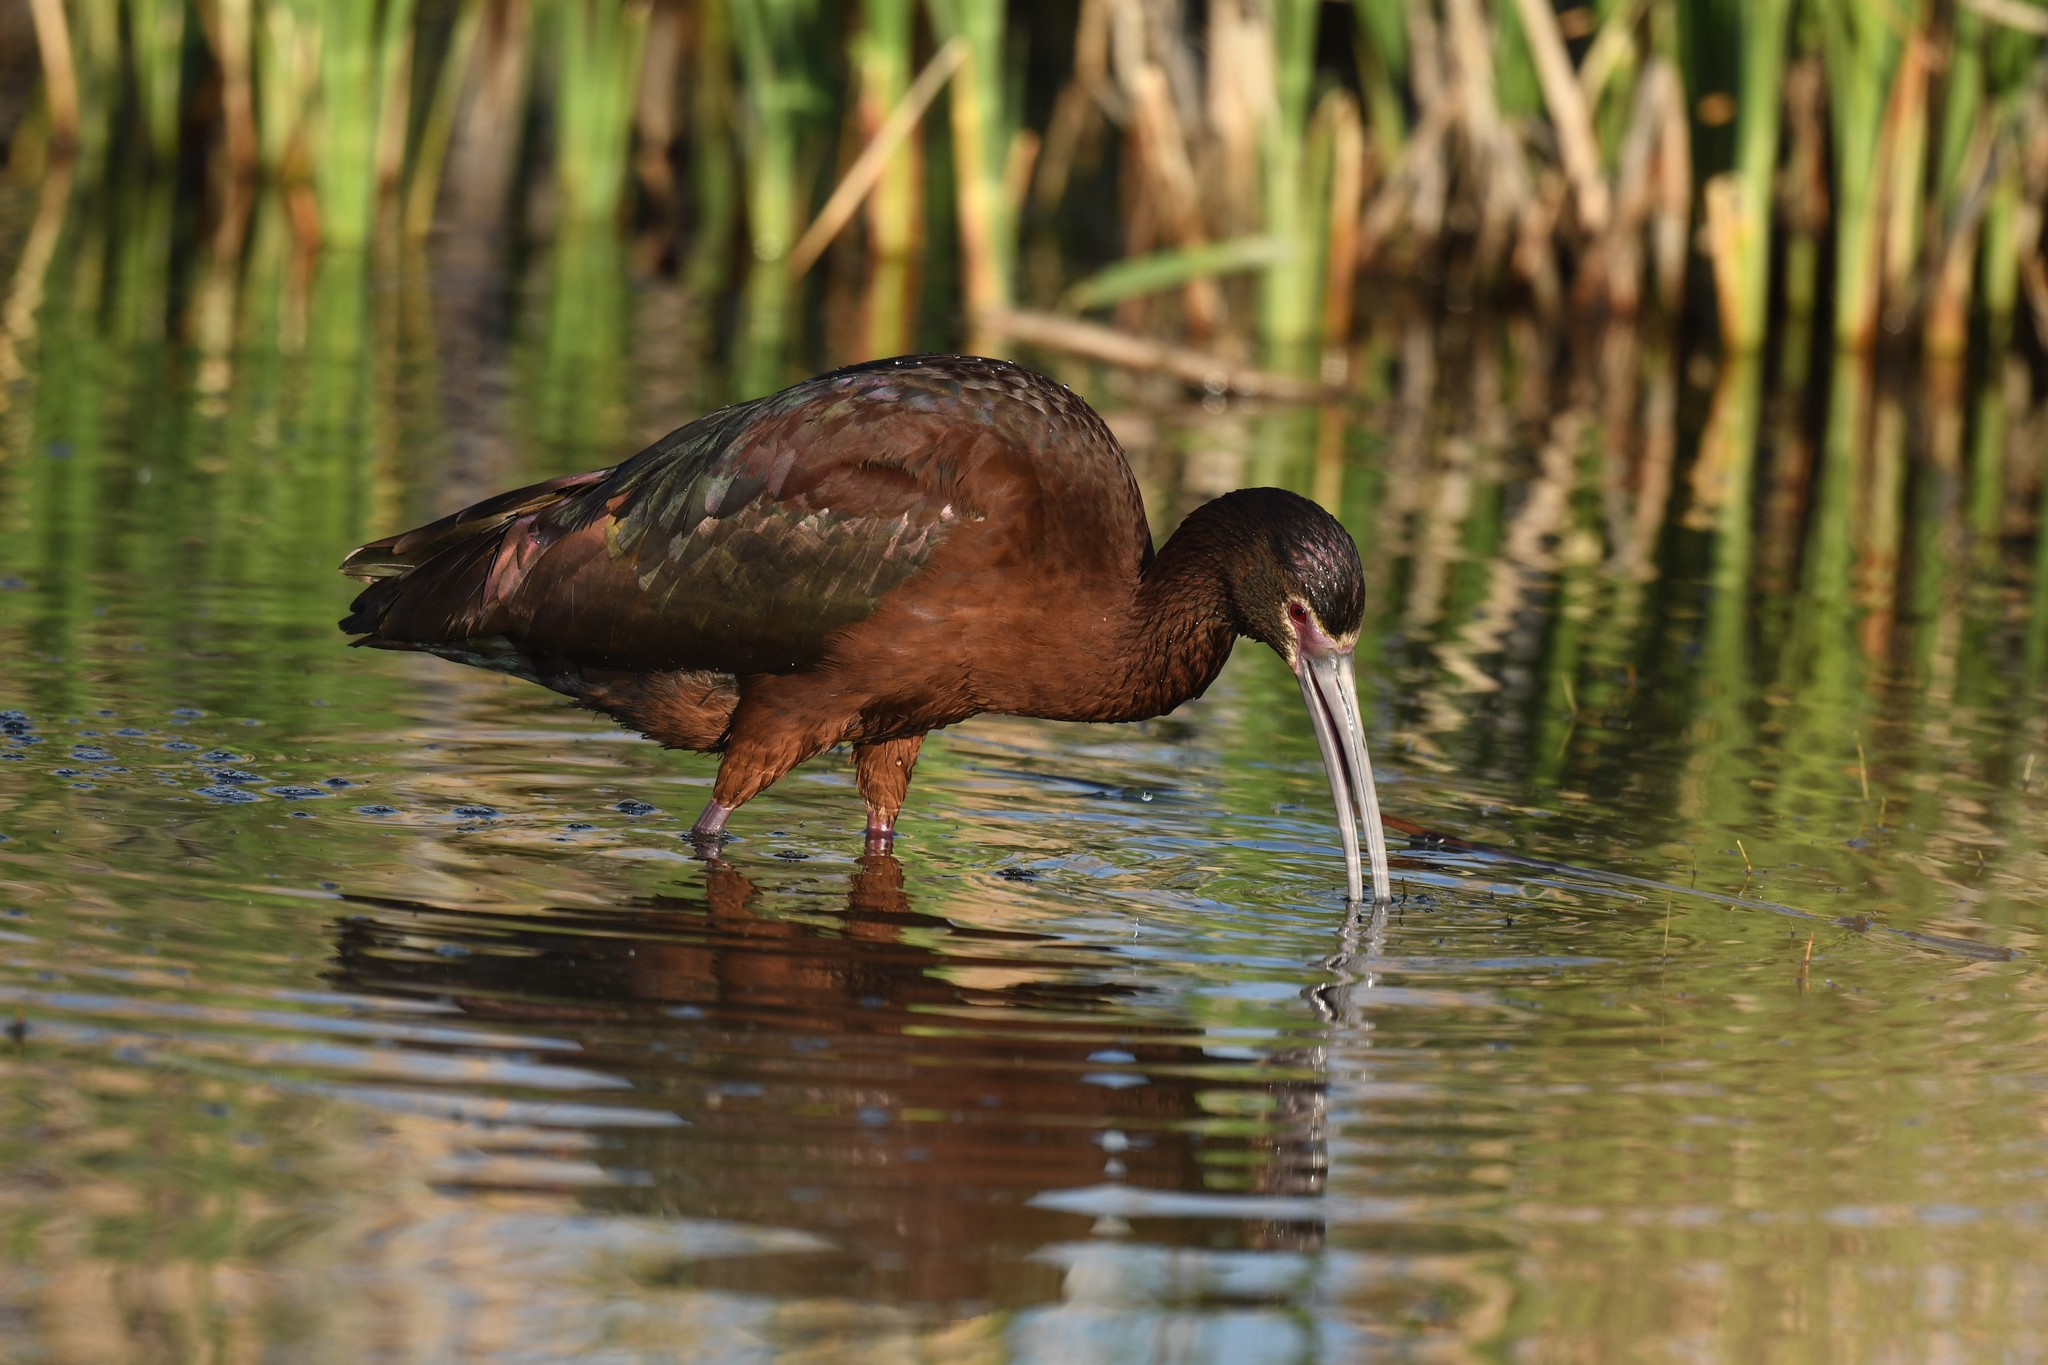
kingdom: Animalia
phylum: Chordata
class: Aves
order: Pelecaniformes
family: Threskiornithidae
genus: Plegadis
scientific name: Plegadis chihi
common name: White-faced ibis
